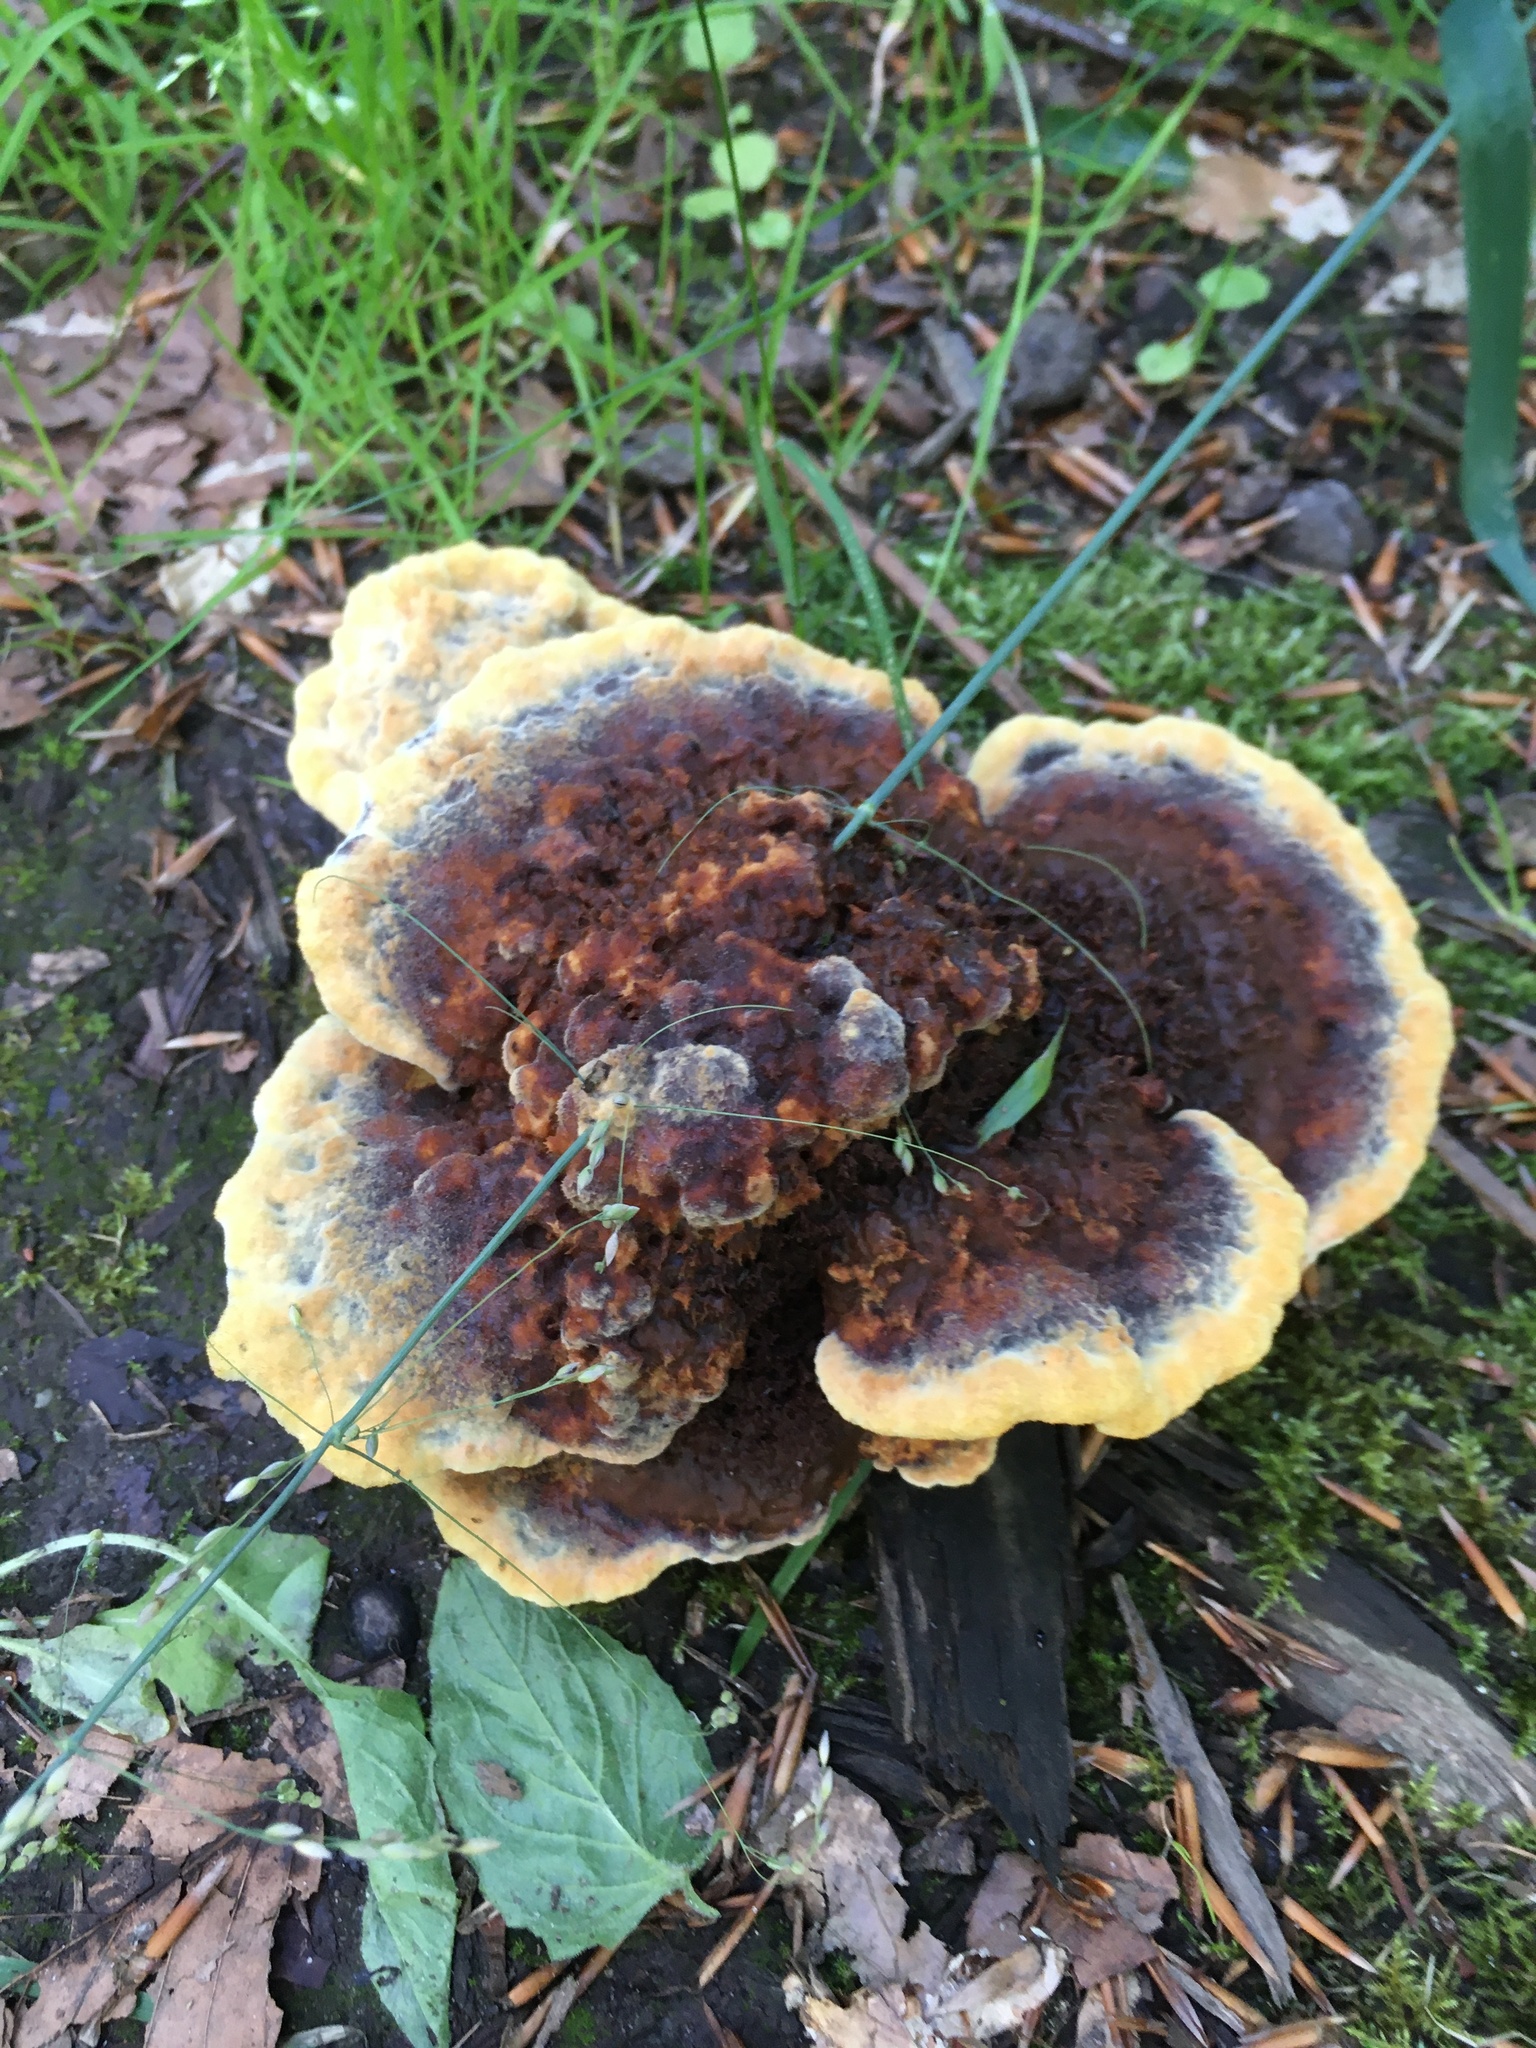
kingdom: Fungi
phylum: Basidiomycota
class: Agaricomycetes
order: Polyporales
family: Laetiporaceae
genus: Phaeolus
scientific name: Phaeolus schweinitzii
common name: Dyer's mazegill
